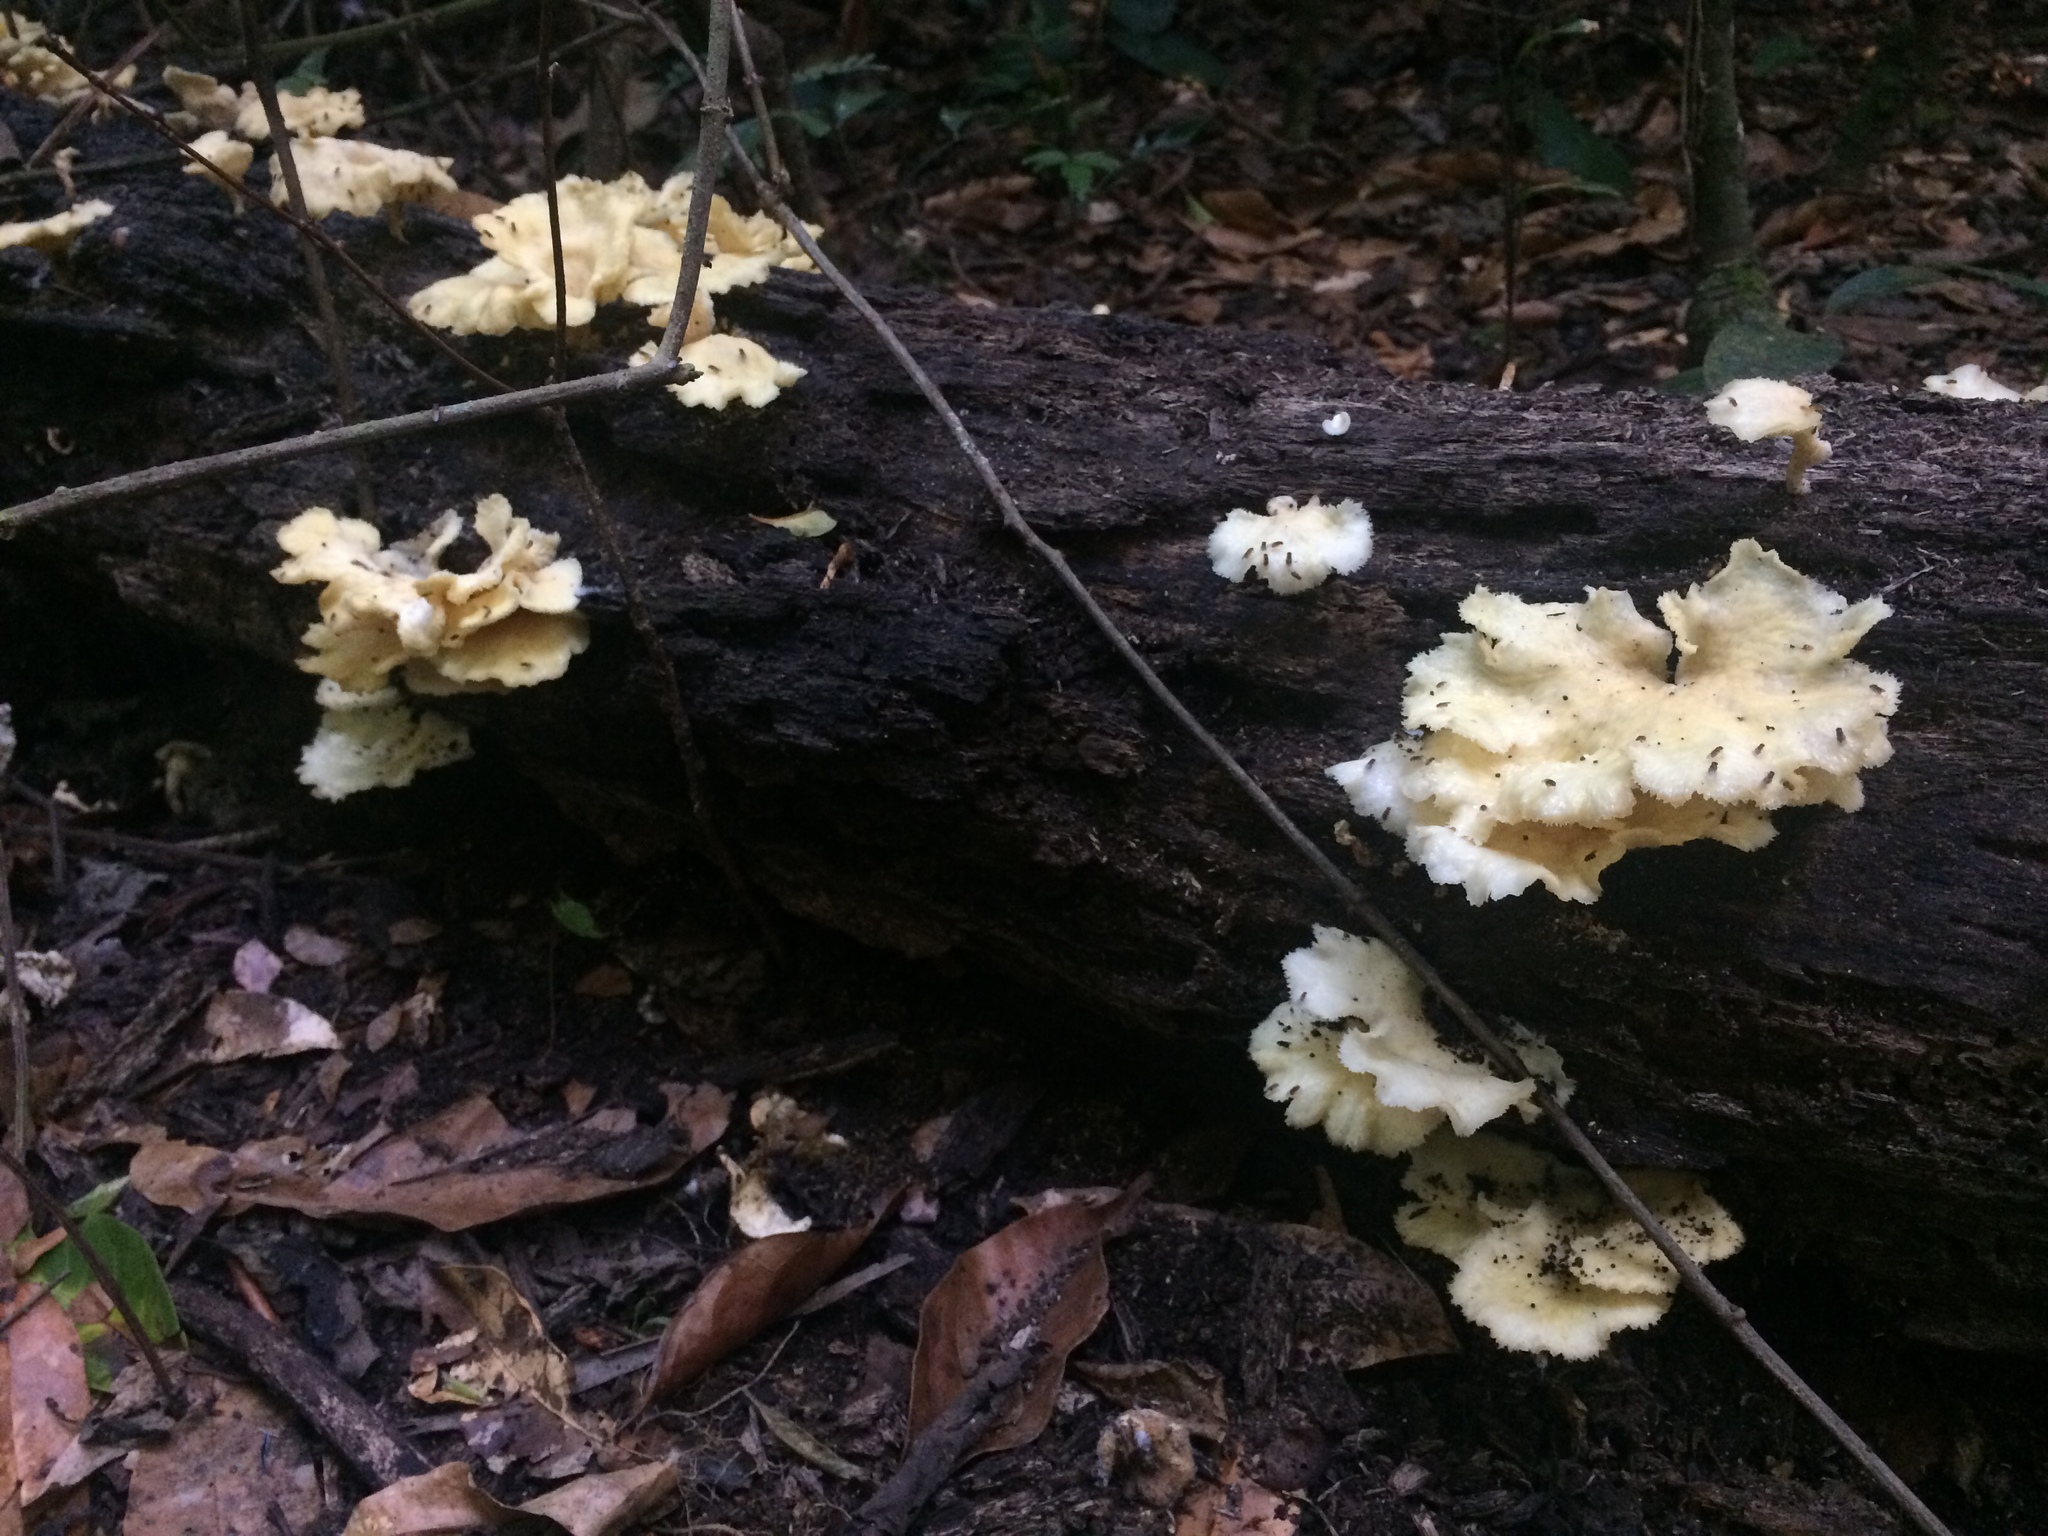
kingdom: Fungi
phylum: Basidiomycota
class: Agaricomycetes
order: Polyporales
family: Polyporaceae
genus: Favolus
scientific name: Favolus tenuiculus
